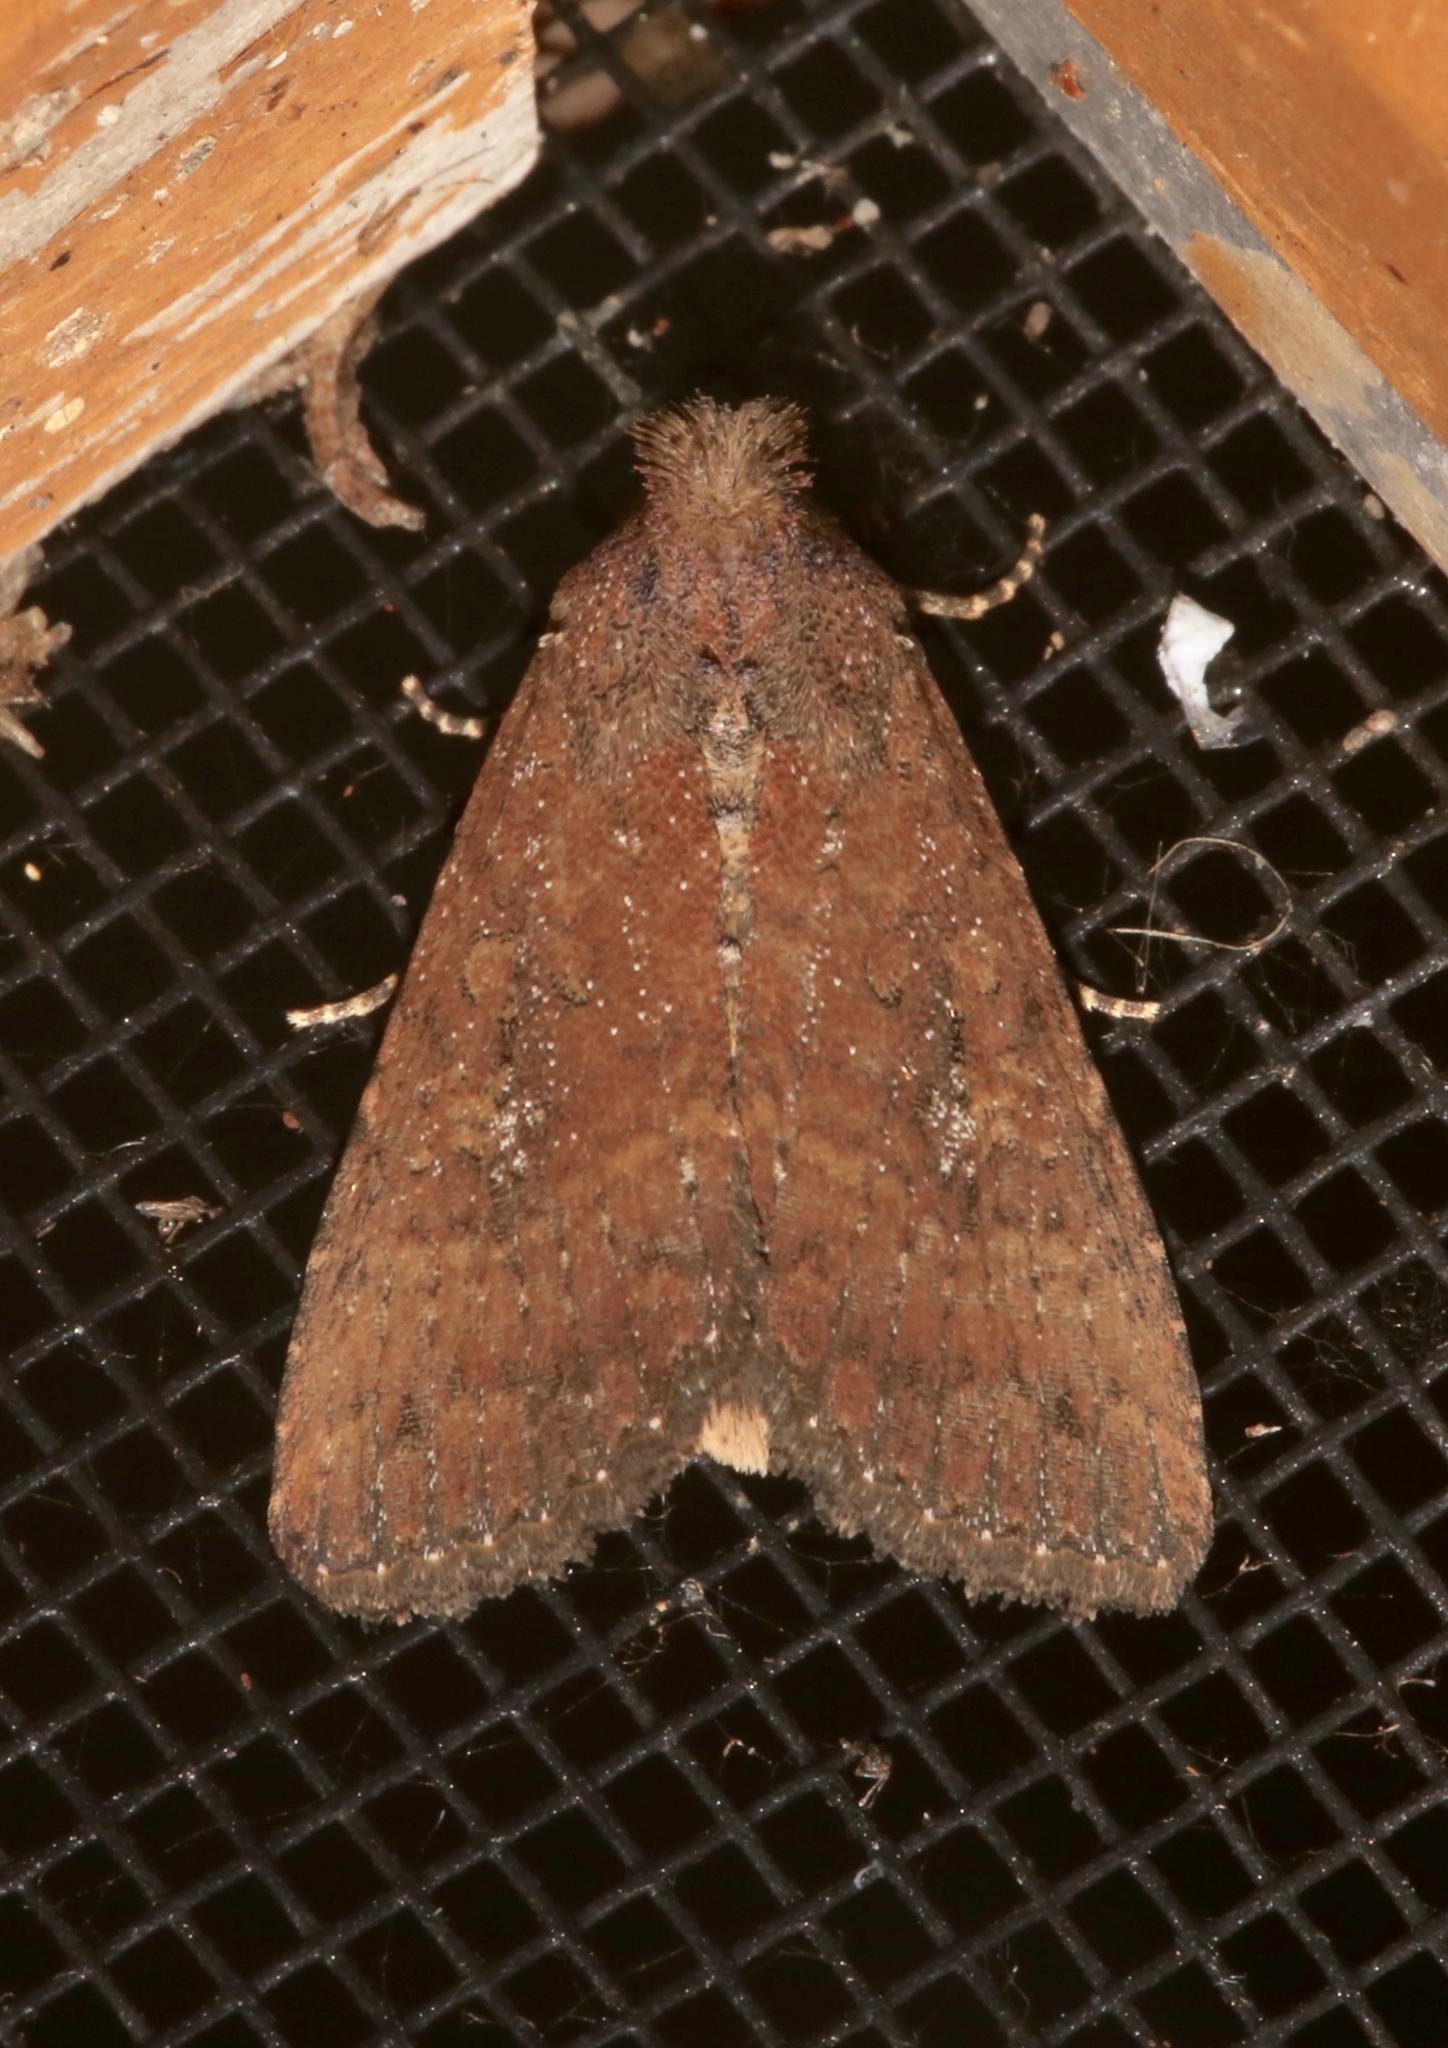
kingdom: Animalia
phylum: Arthropoda
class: Insecta
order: Lepidoptera
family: Noctuidae
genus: Condica
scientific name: Condica sutor
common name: Cobbler moth
